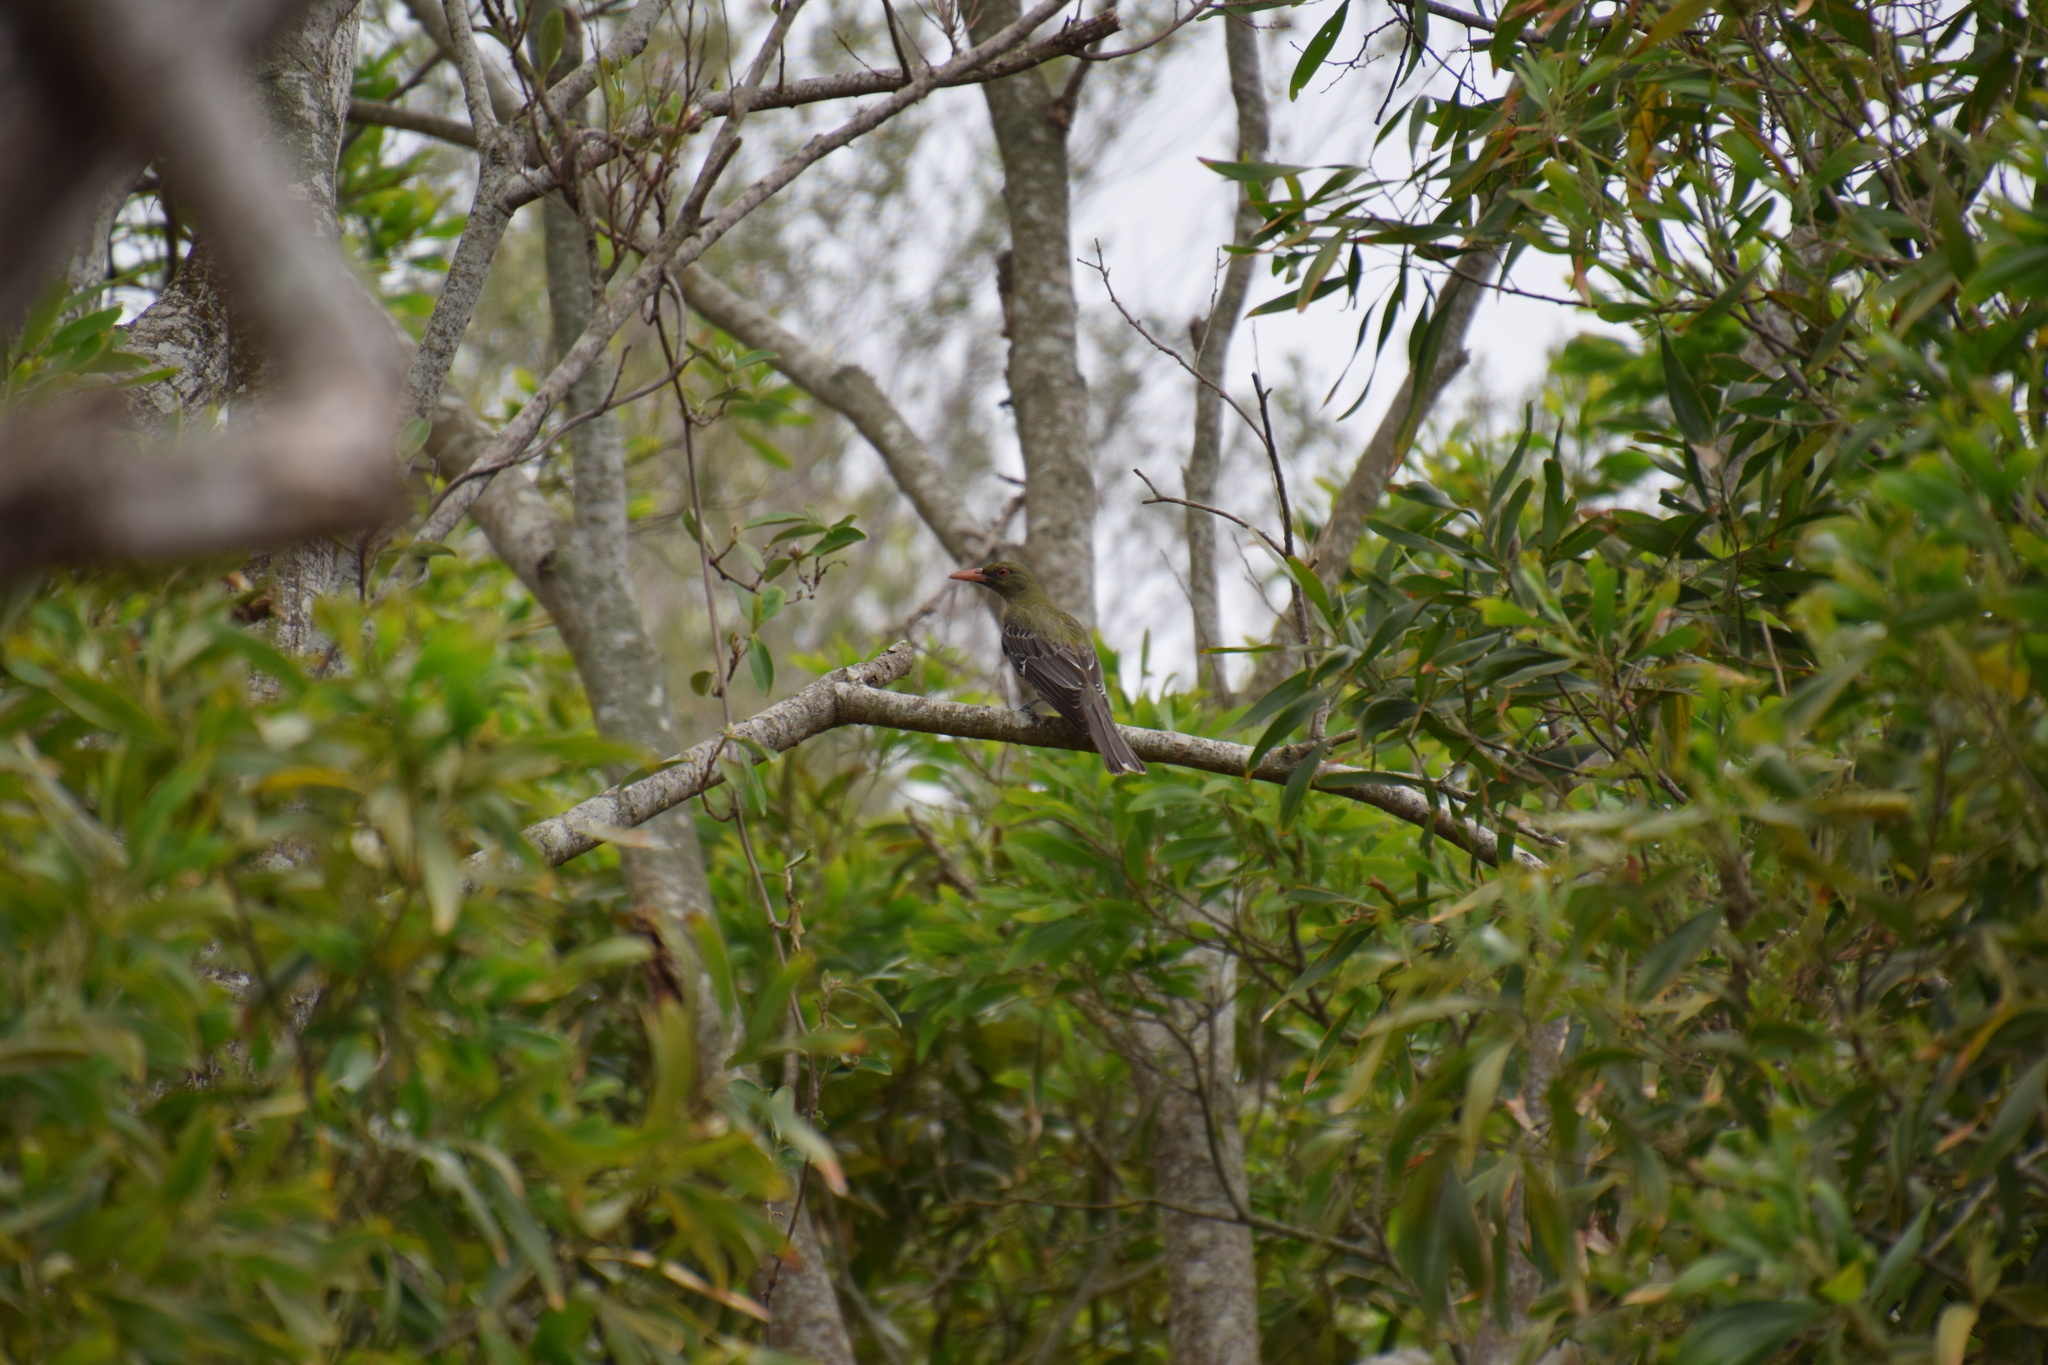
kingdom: Animalia
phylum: Chordata
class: Aves
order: Passeriformes
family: Oriolidae
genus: Oriolus
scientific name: Oriolus sagittatus
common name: Olive-backed oriole
